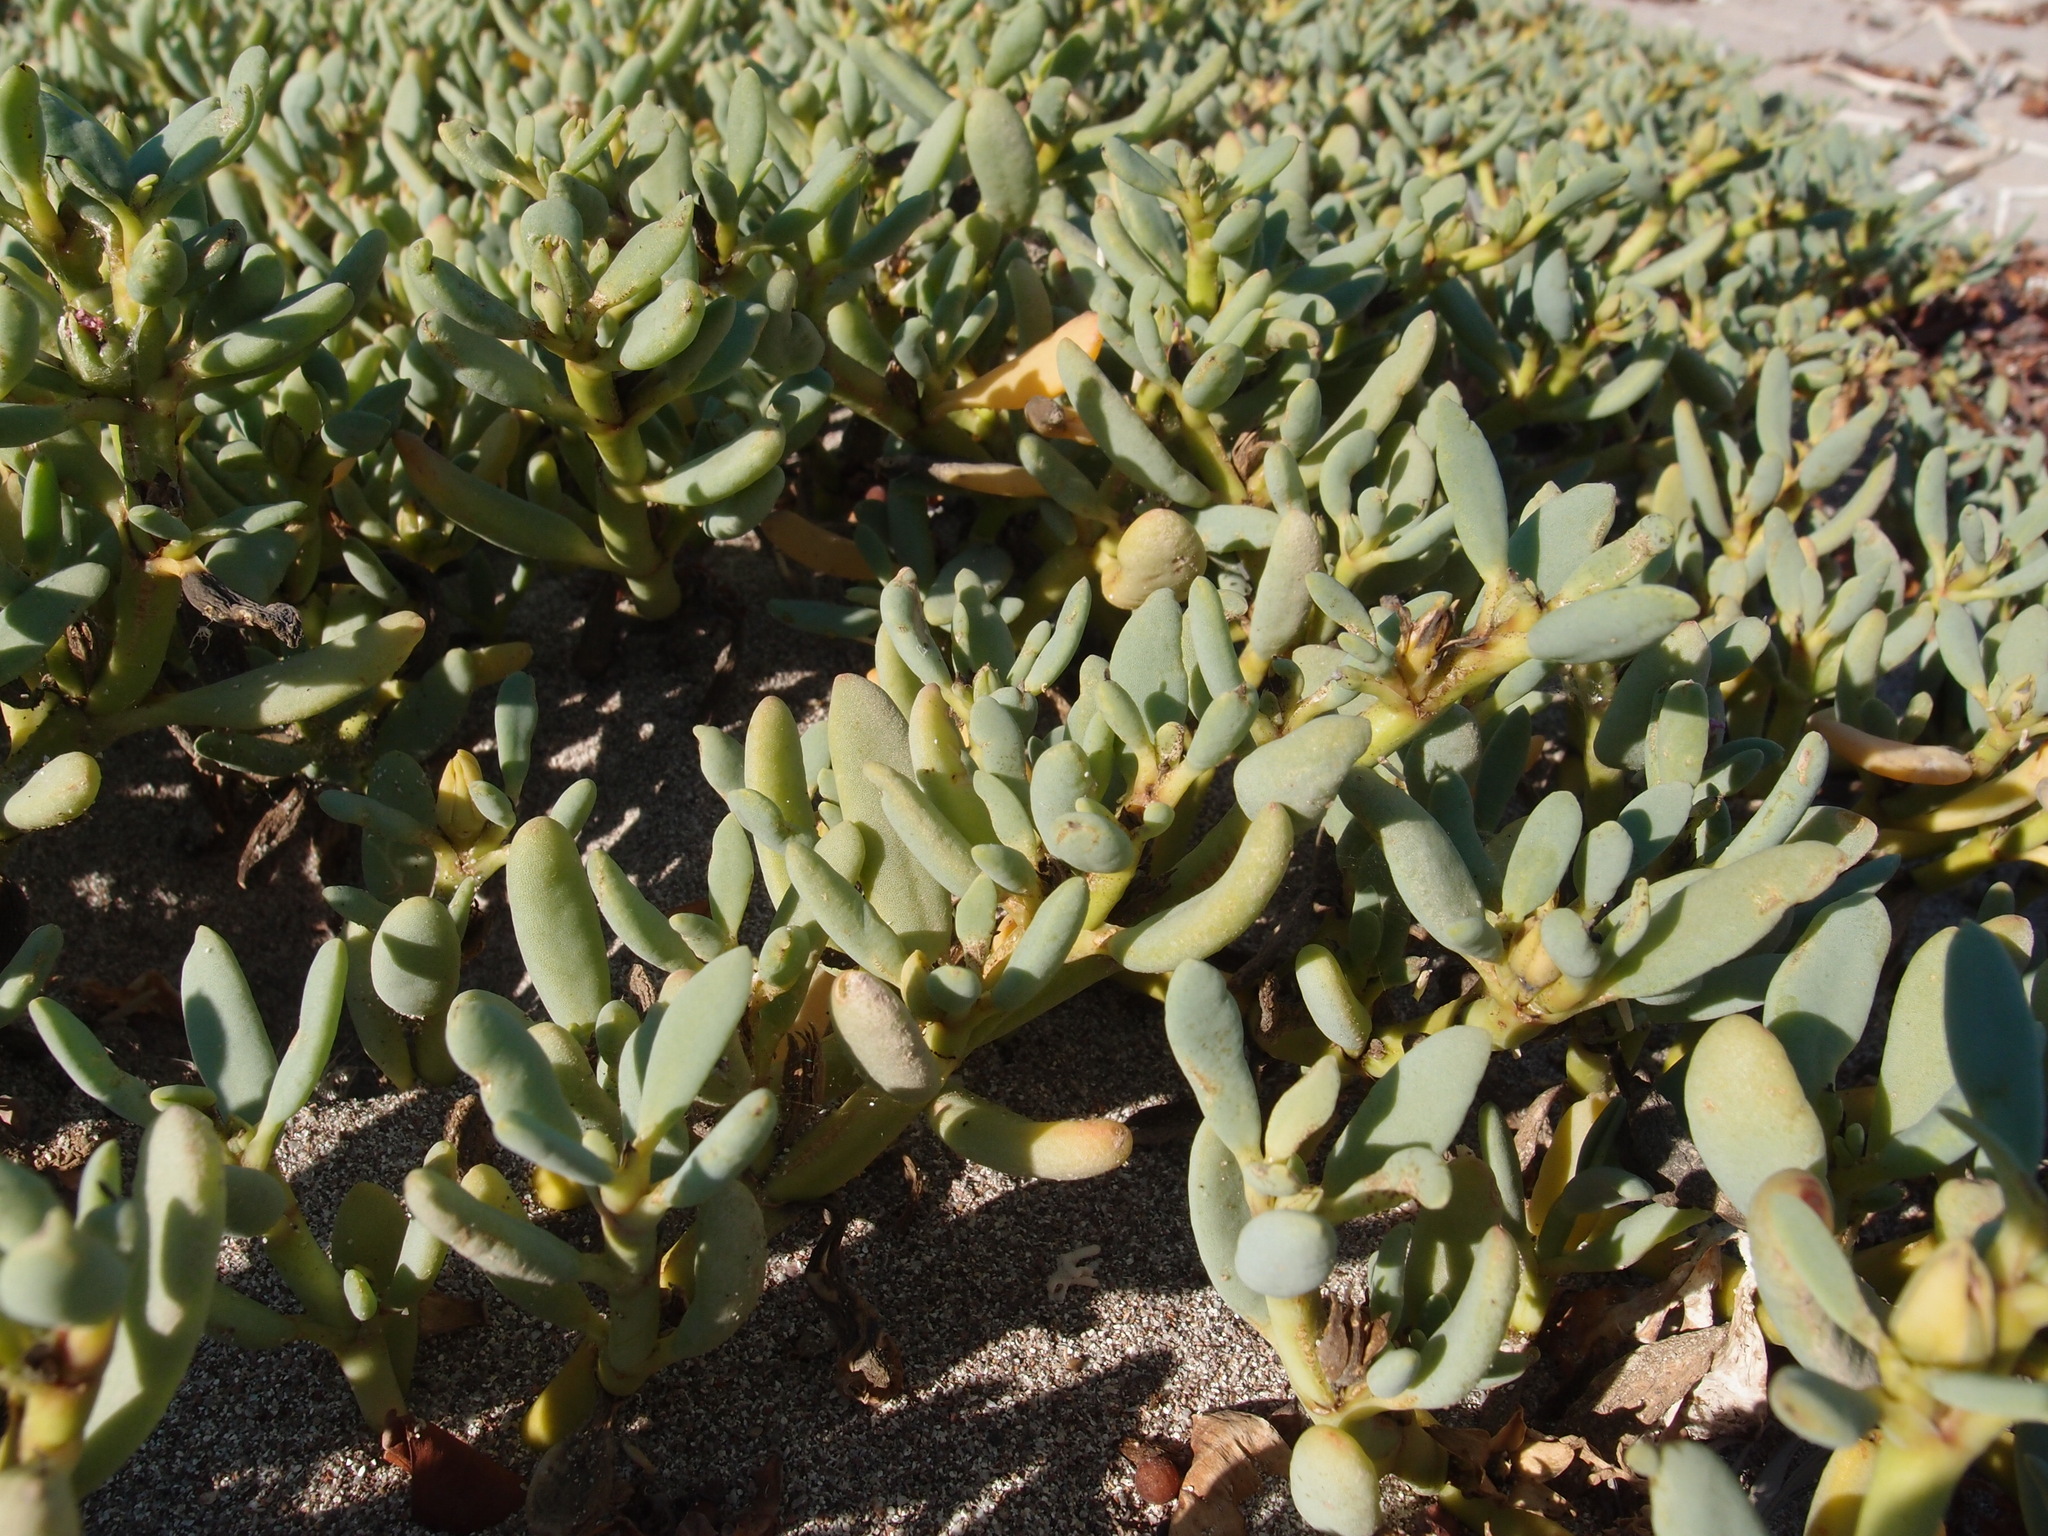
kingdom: Plantae
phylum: Tracheophyta
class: Magnoliopsida
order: Caryophyllales
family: Aizoaceae
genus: Sesuvium
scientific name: Sesuvium portulacastrum
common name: Sea-purslane
